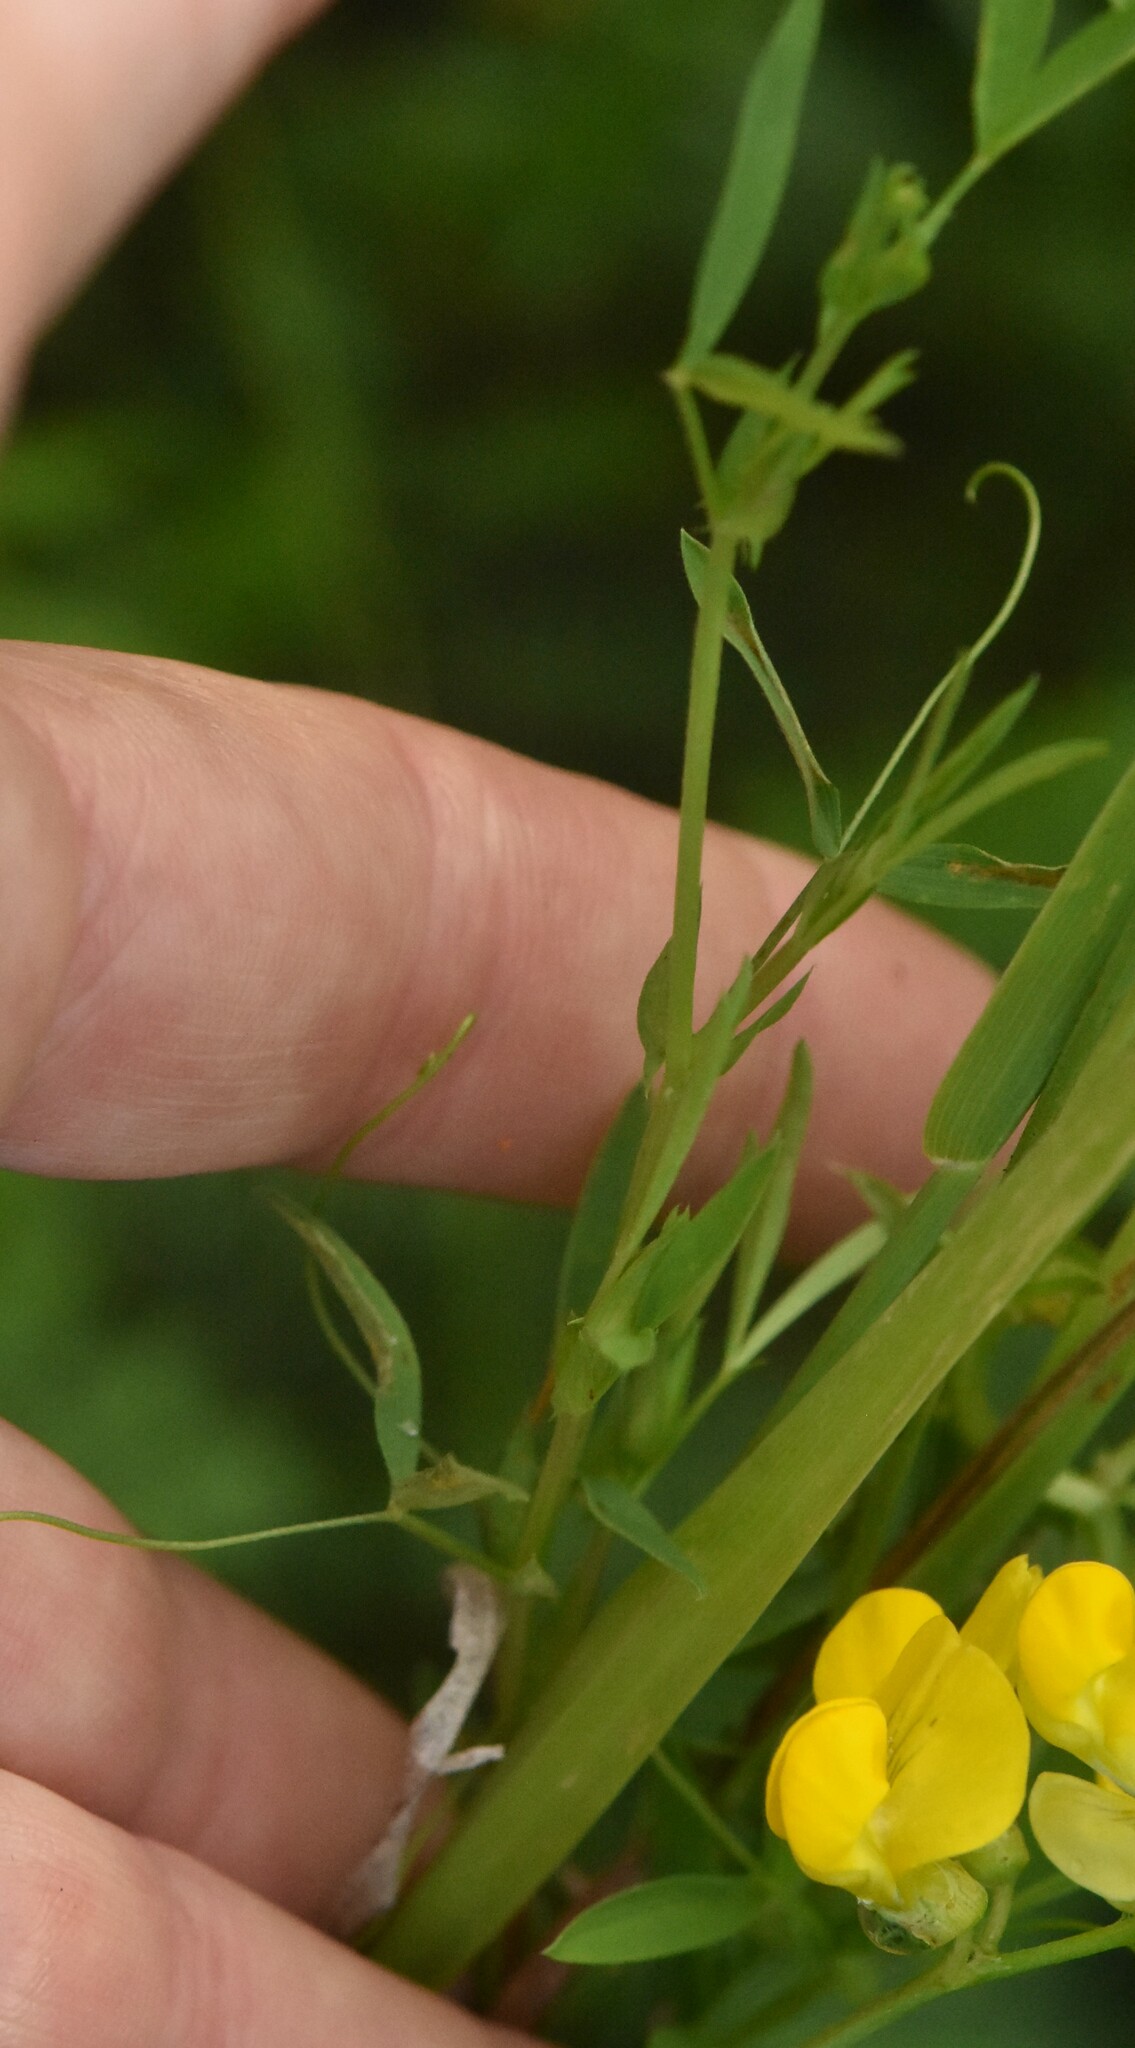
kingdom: Plantae
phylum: Tracheophyta
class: Magnoliopsida
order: Fabales
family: Fabaceae
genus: Lathyrus
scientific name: Lathyrus pratensis
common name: Meadow vetchling
